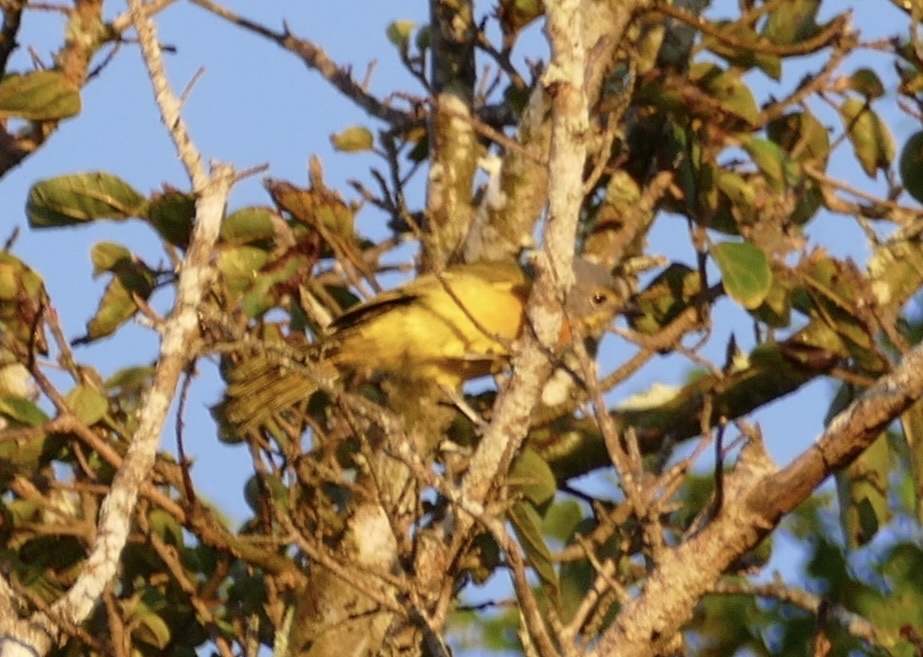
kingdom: Animalia
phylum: Chordata
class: Aves
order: Passeriformes
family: Malaconotidae
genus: Chlorophoneus
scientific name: Chlorophoneus sulfureopectus
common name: Orange-breasted bushshrike
